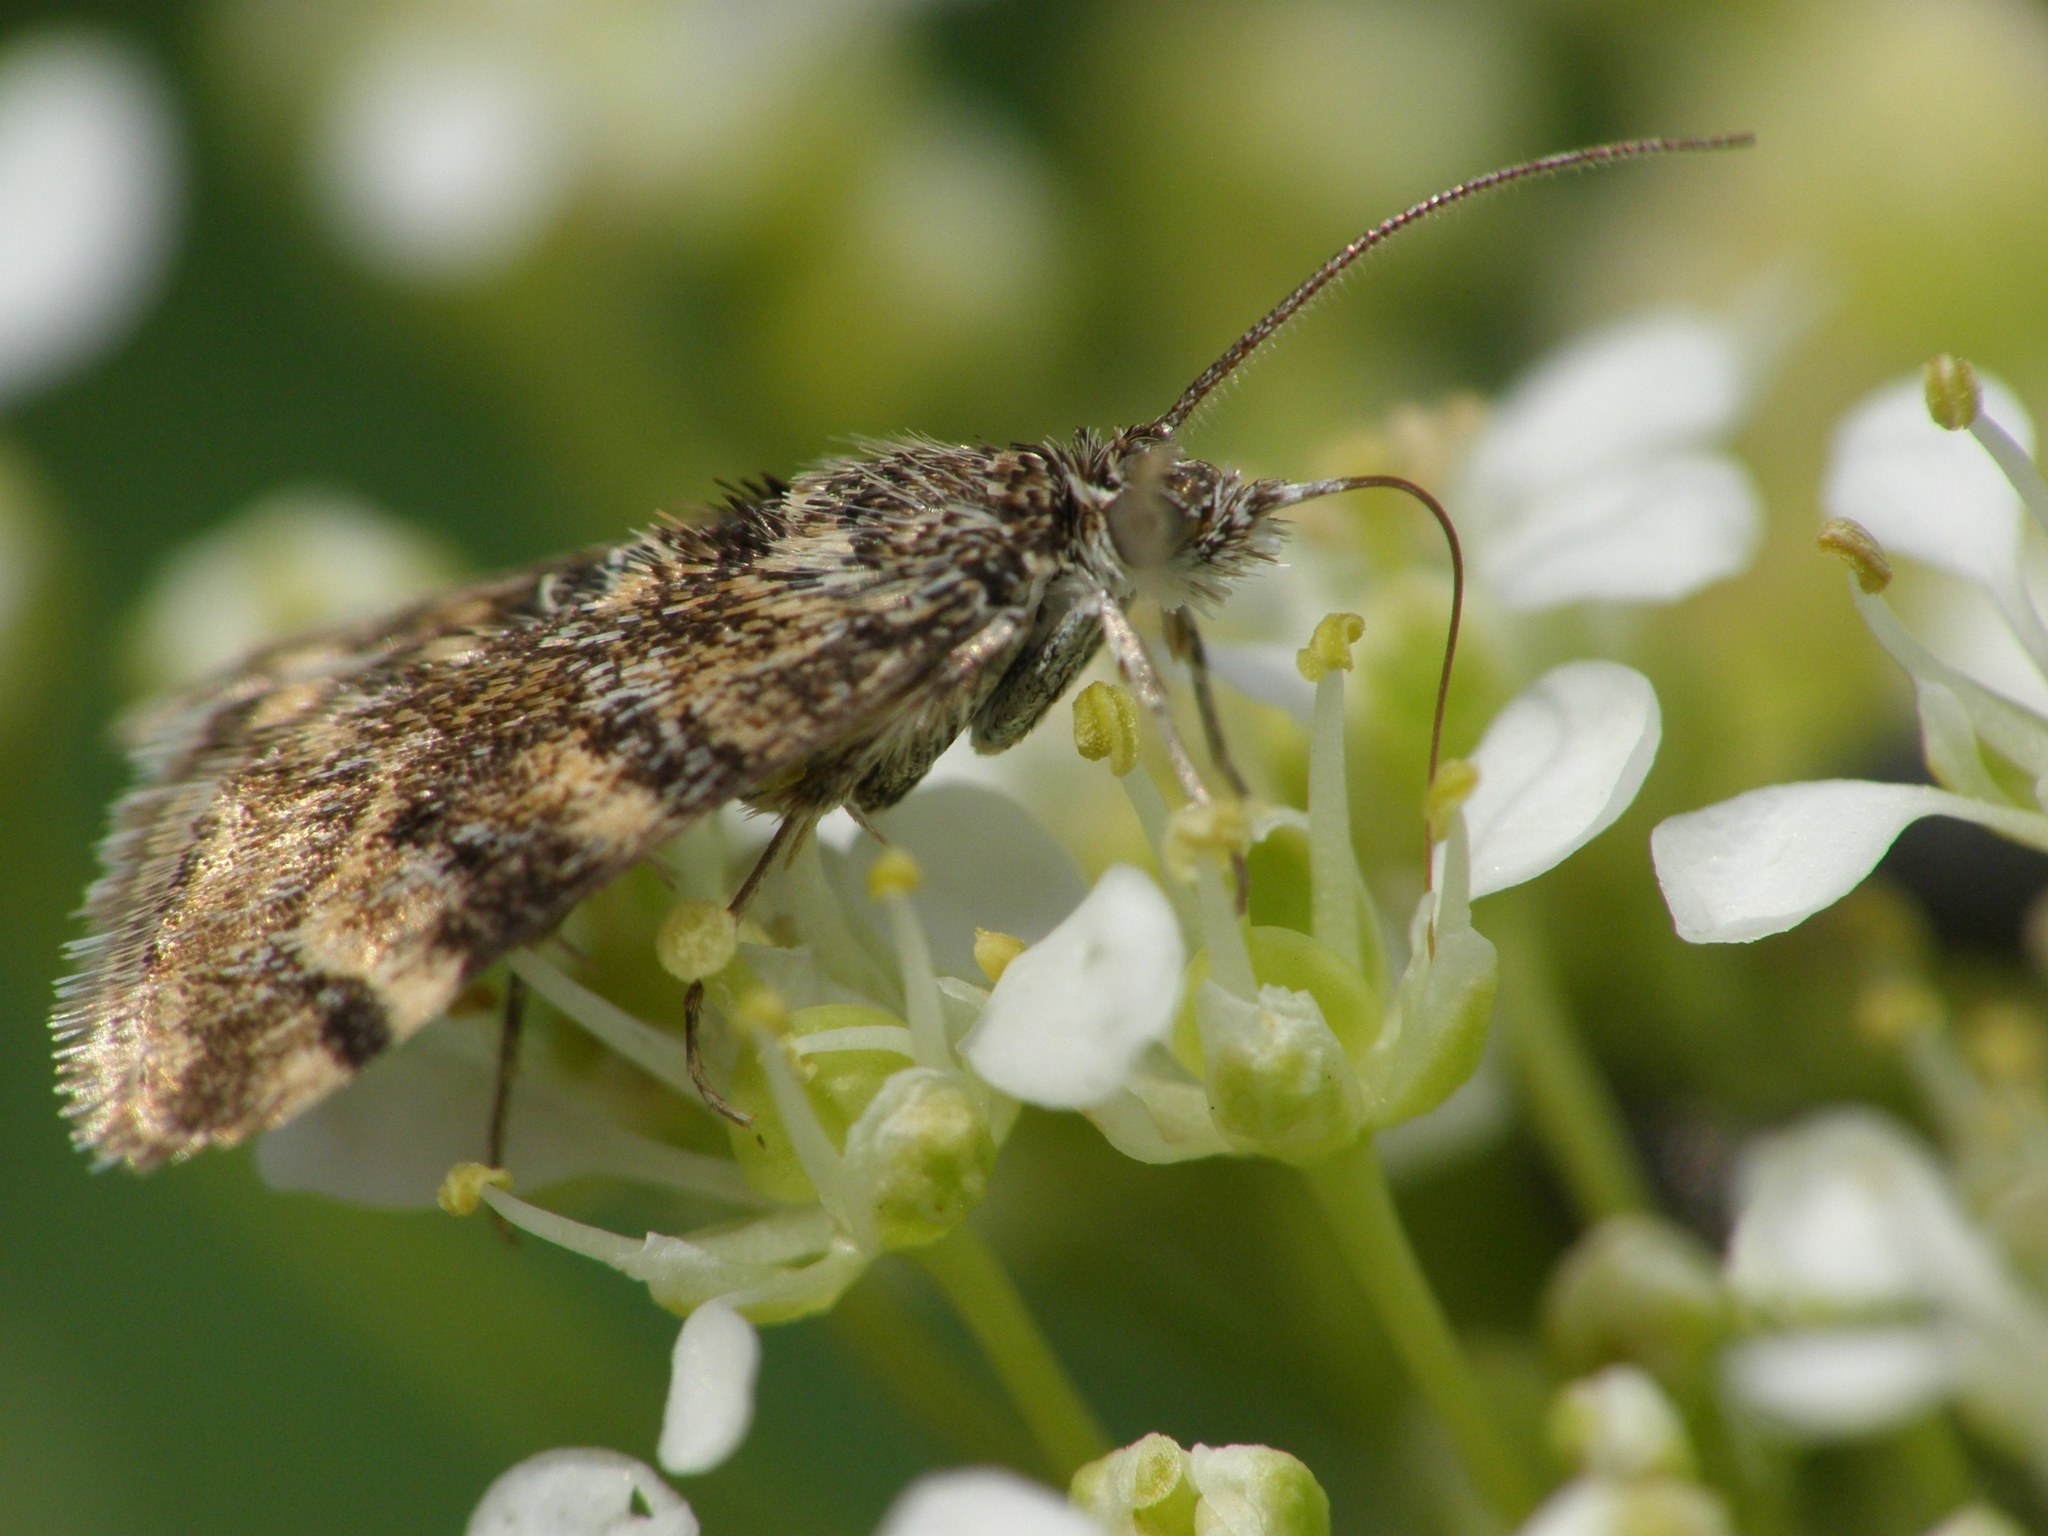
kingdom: Animalia
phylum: Arthropoda
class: Insecta
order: Lepidoptera
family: Crambidae
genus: Noctuelia
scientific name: Noctuelia Aporodes floralis
